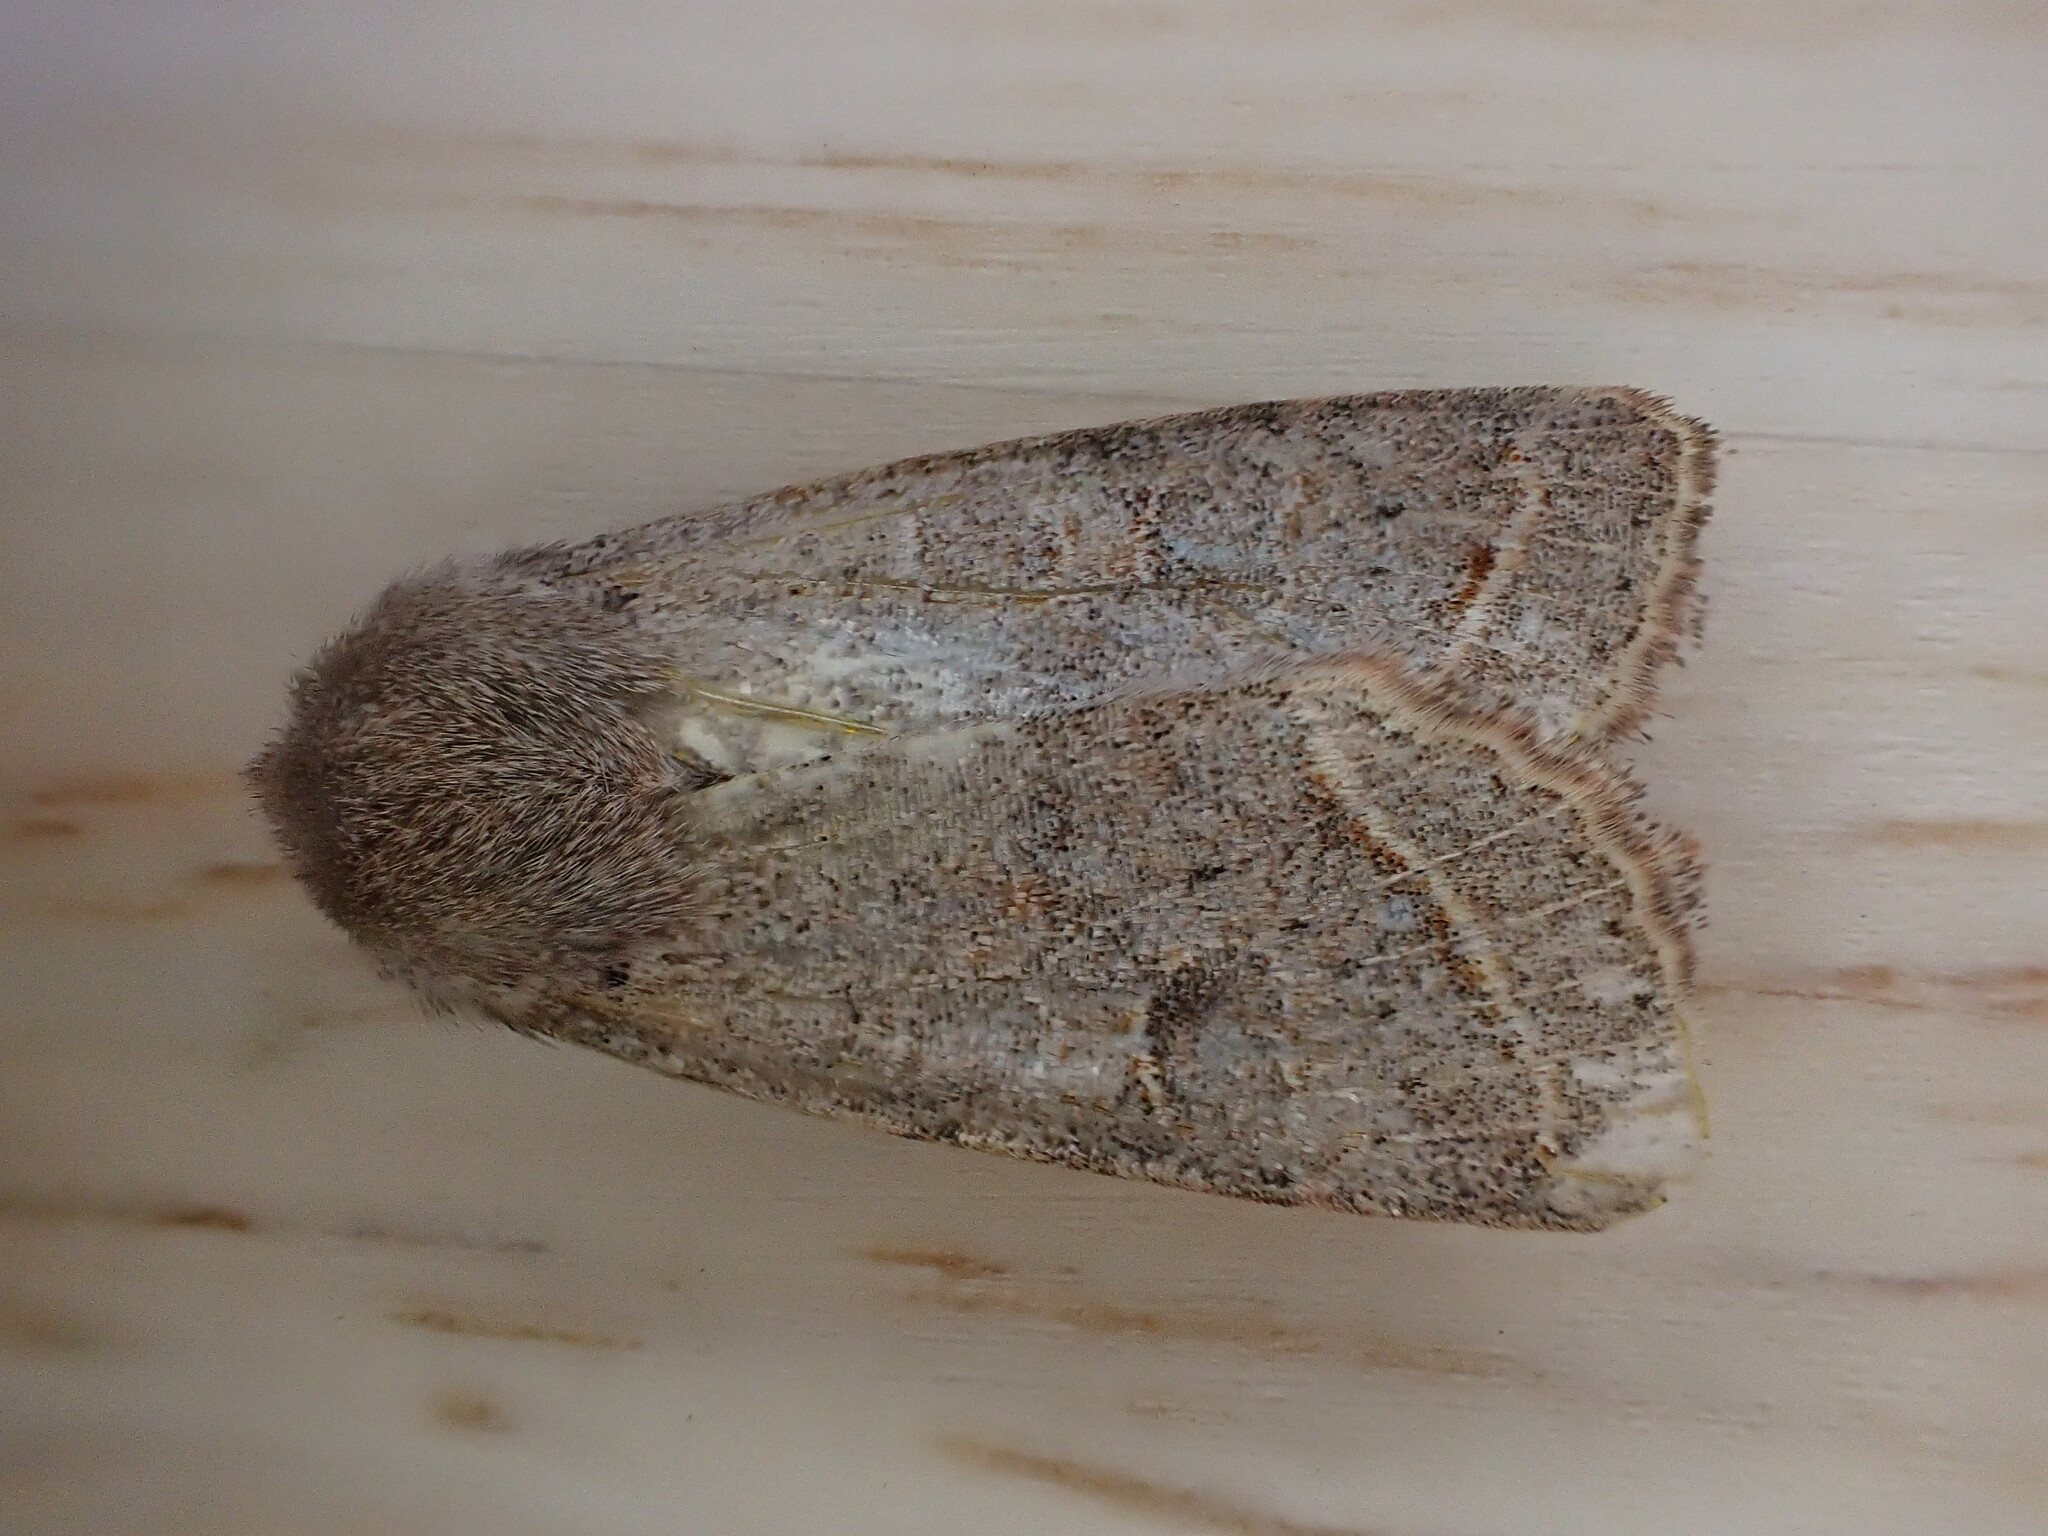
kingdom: Animalia
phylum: Arthropoda
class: Insecta
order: Lepidoptera
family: Noctuidae
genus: Orthosia
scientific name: Orthosia cerasi
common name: Common quaker
